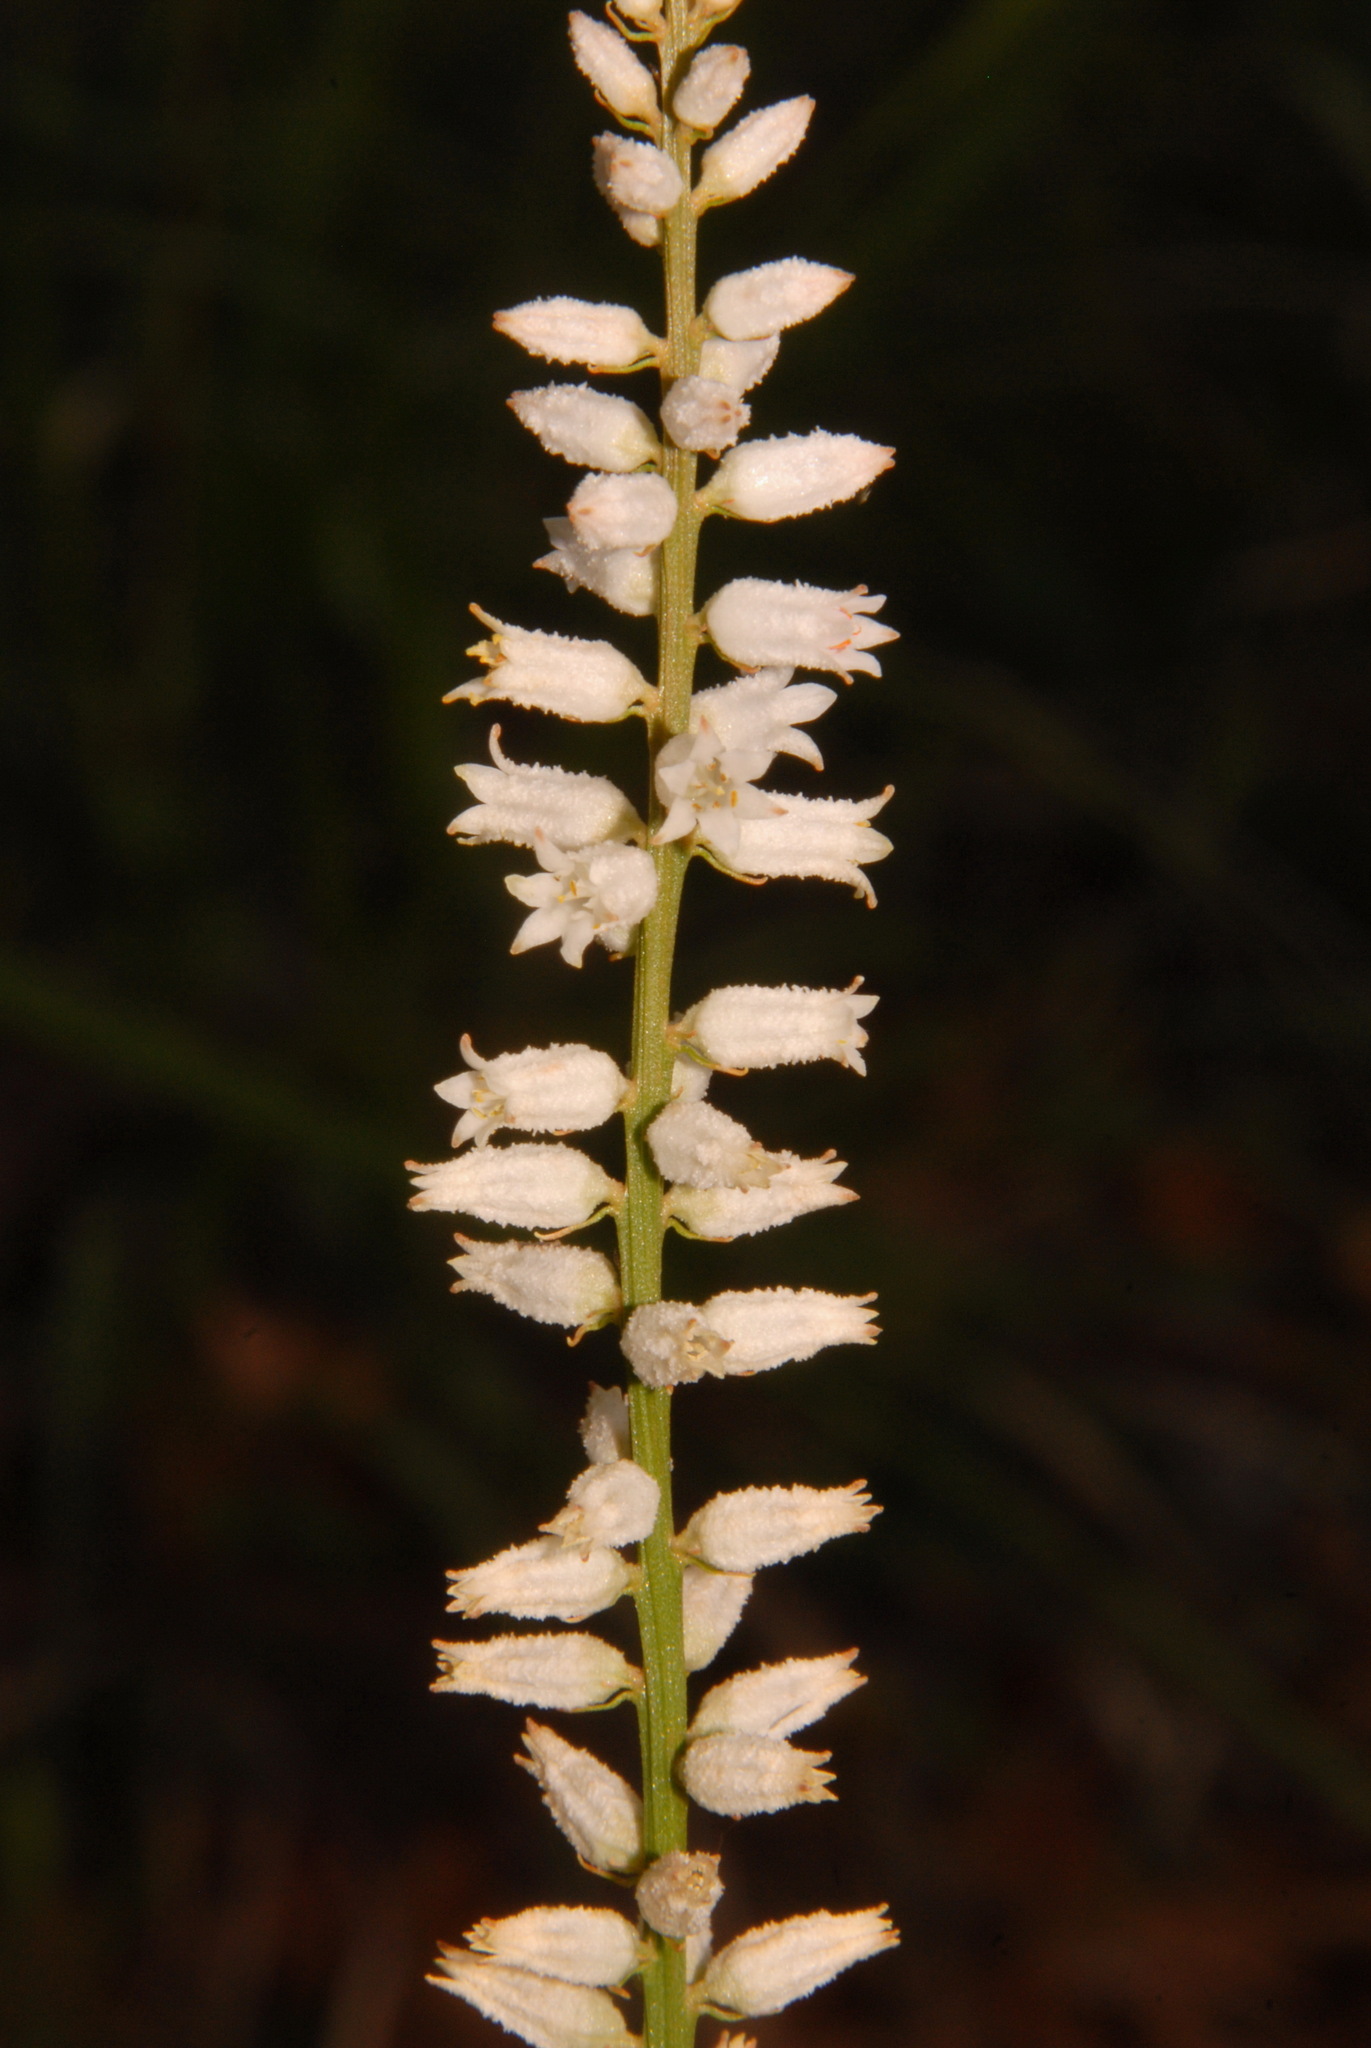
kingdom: Plantae
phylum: Tracheophyta
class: Liliopsida
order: Dioscoreales
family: Nartheciaceae
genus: Aletris
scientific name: Aletris farinosa
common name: Colicroot
